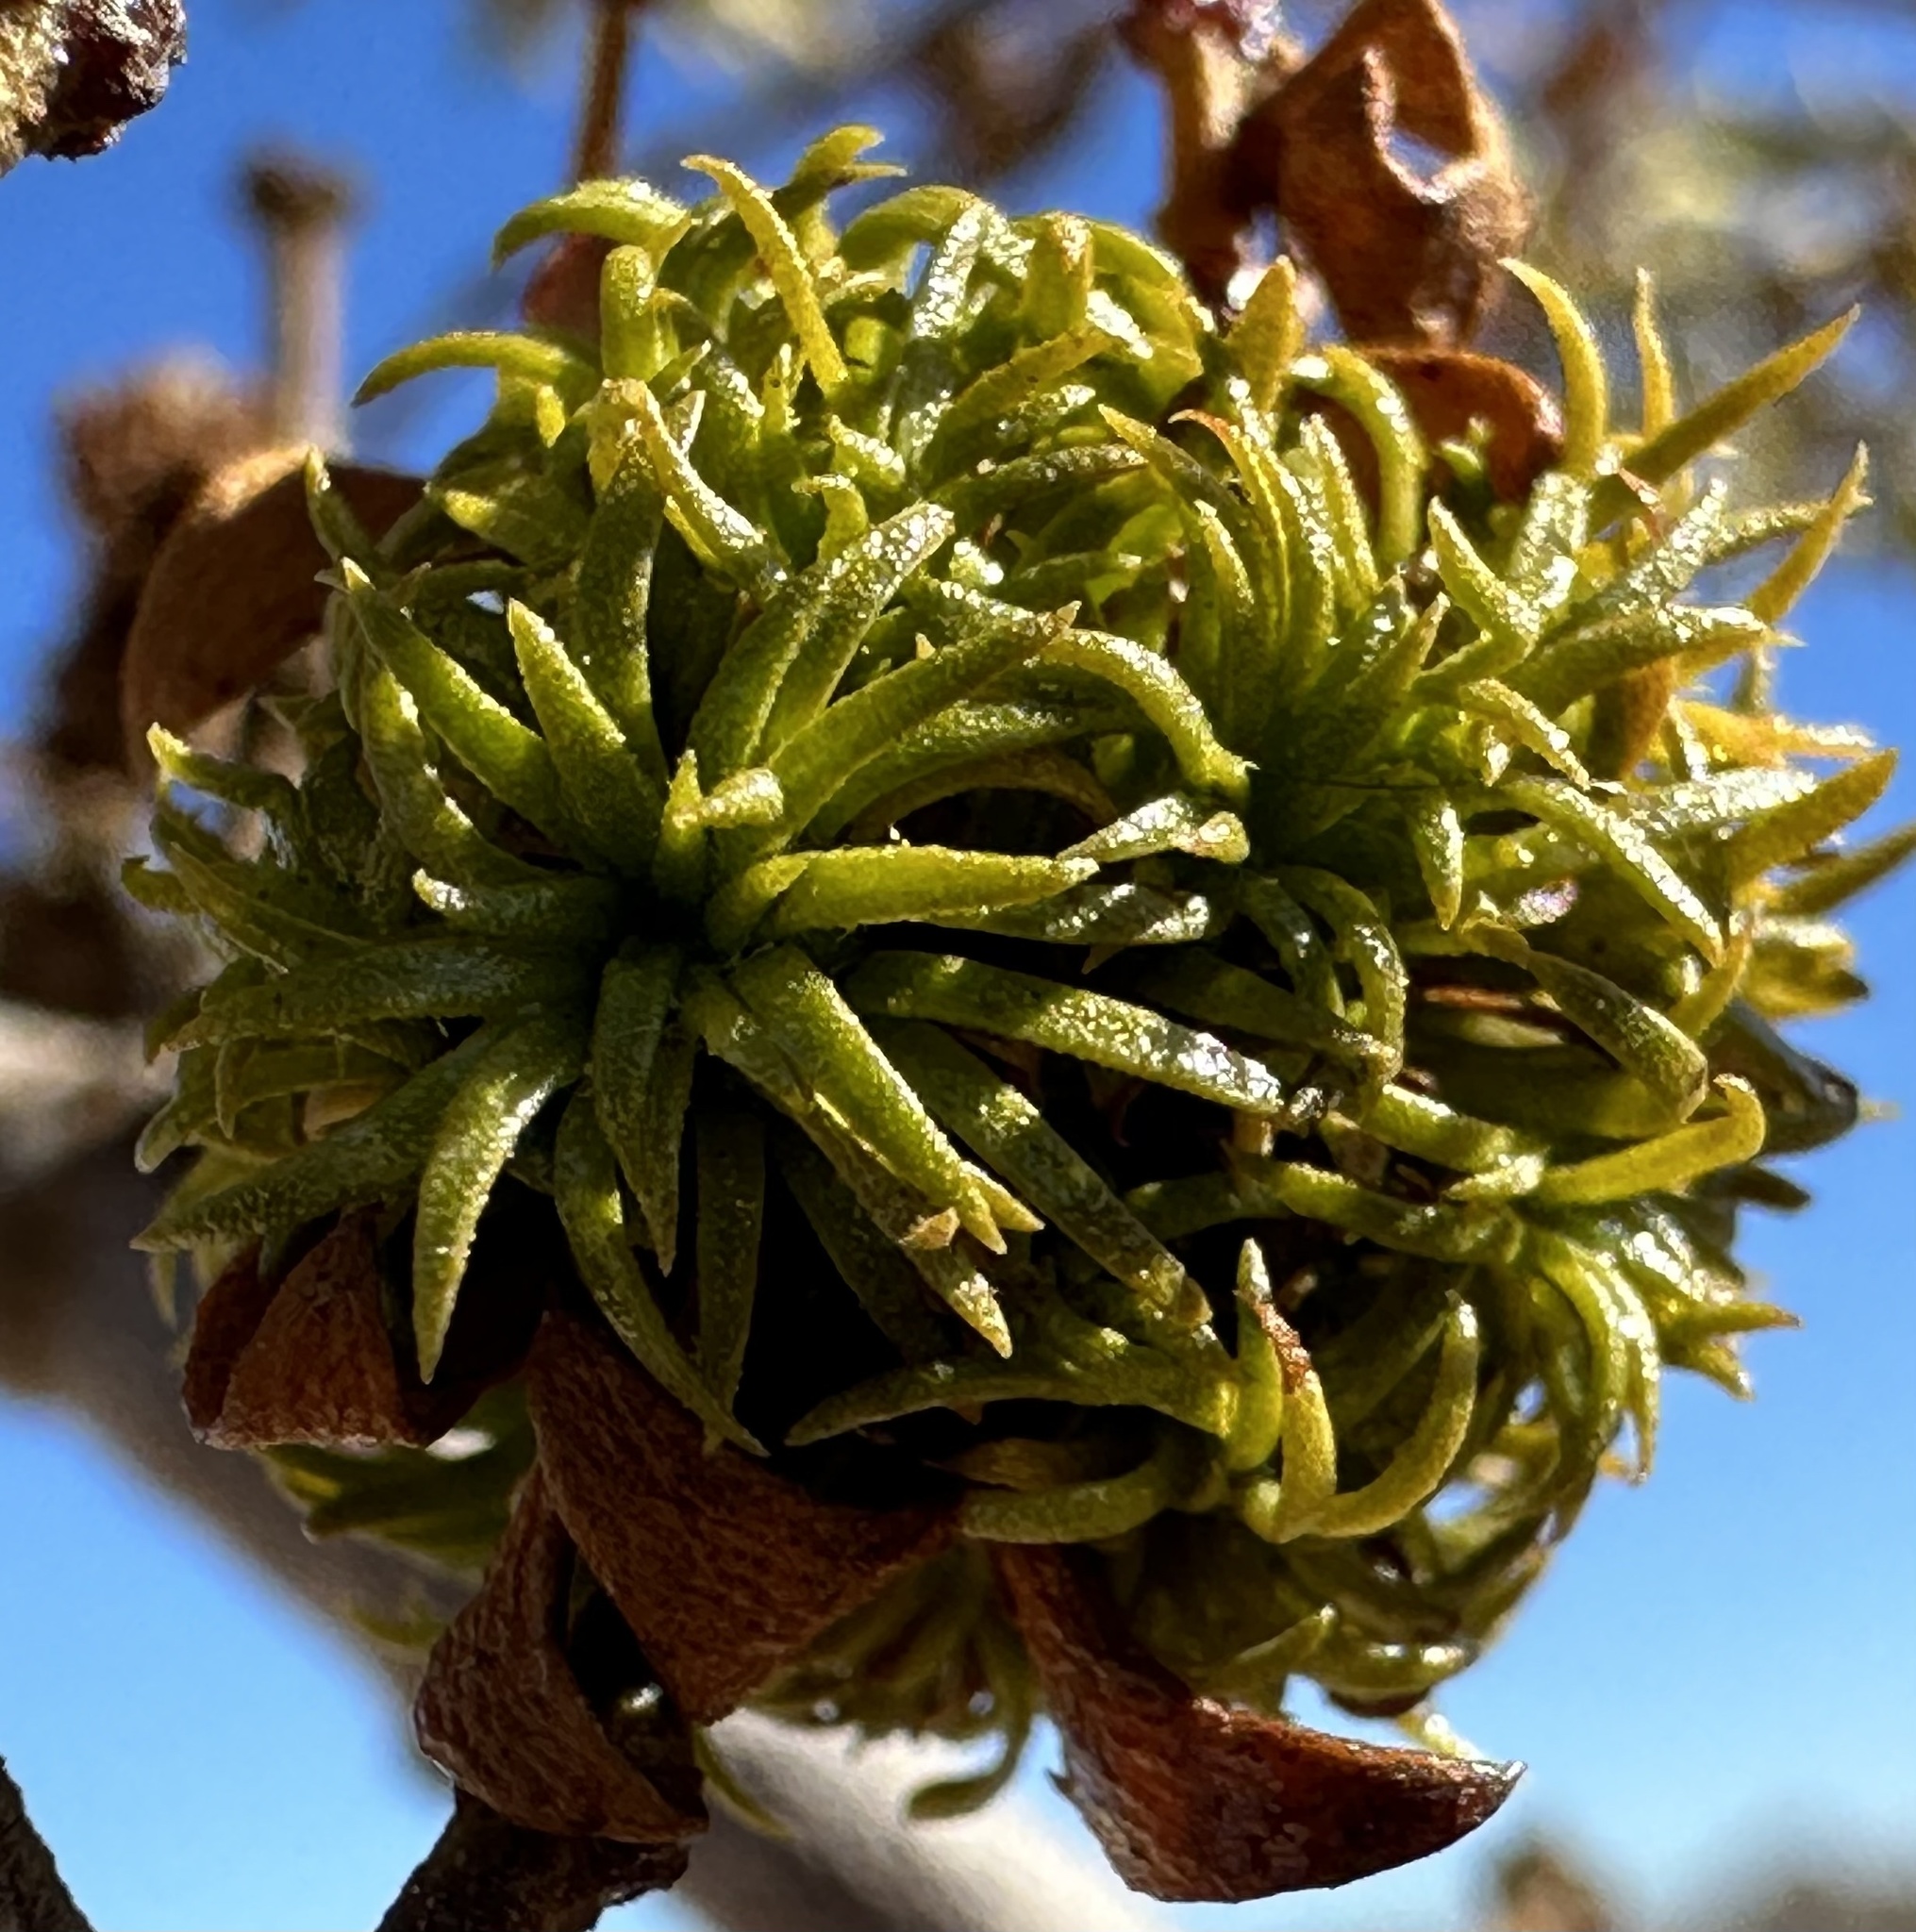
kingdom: Animalia
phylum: Arthropoda
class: Insecta
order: Diptera
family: Cecidomyiidae
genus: Asphondylia
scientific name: Asphondylia auripila
